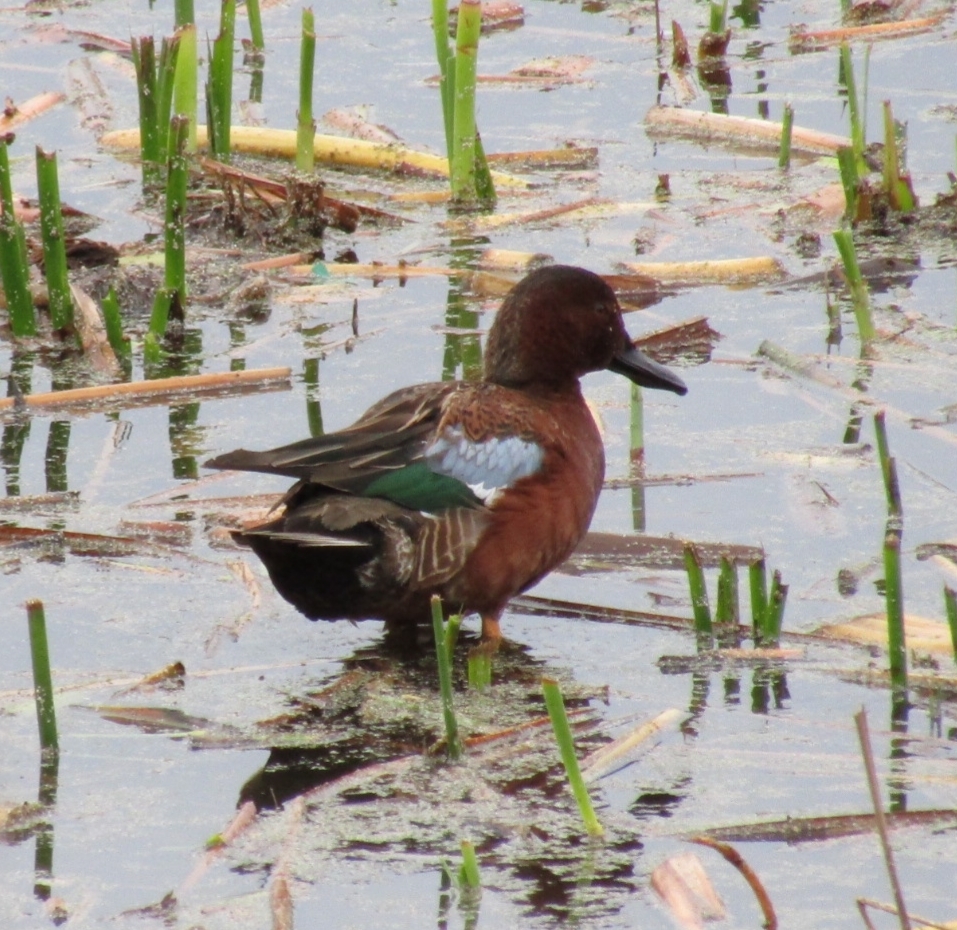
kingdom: Animalia
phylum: Chordata
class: Aves
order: Anseriformes
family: Anatidae
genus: Spatula
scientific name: Spatula cyanoptera
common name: Cinnamon teal
